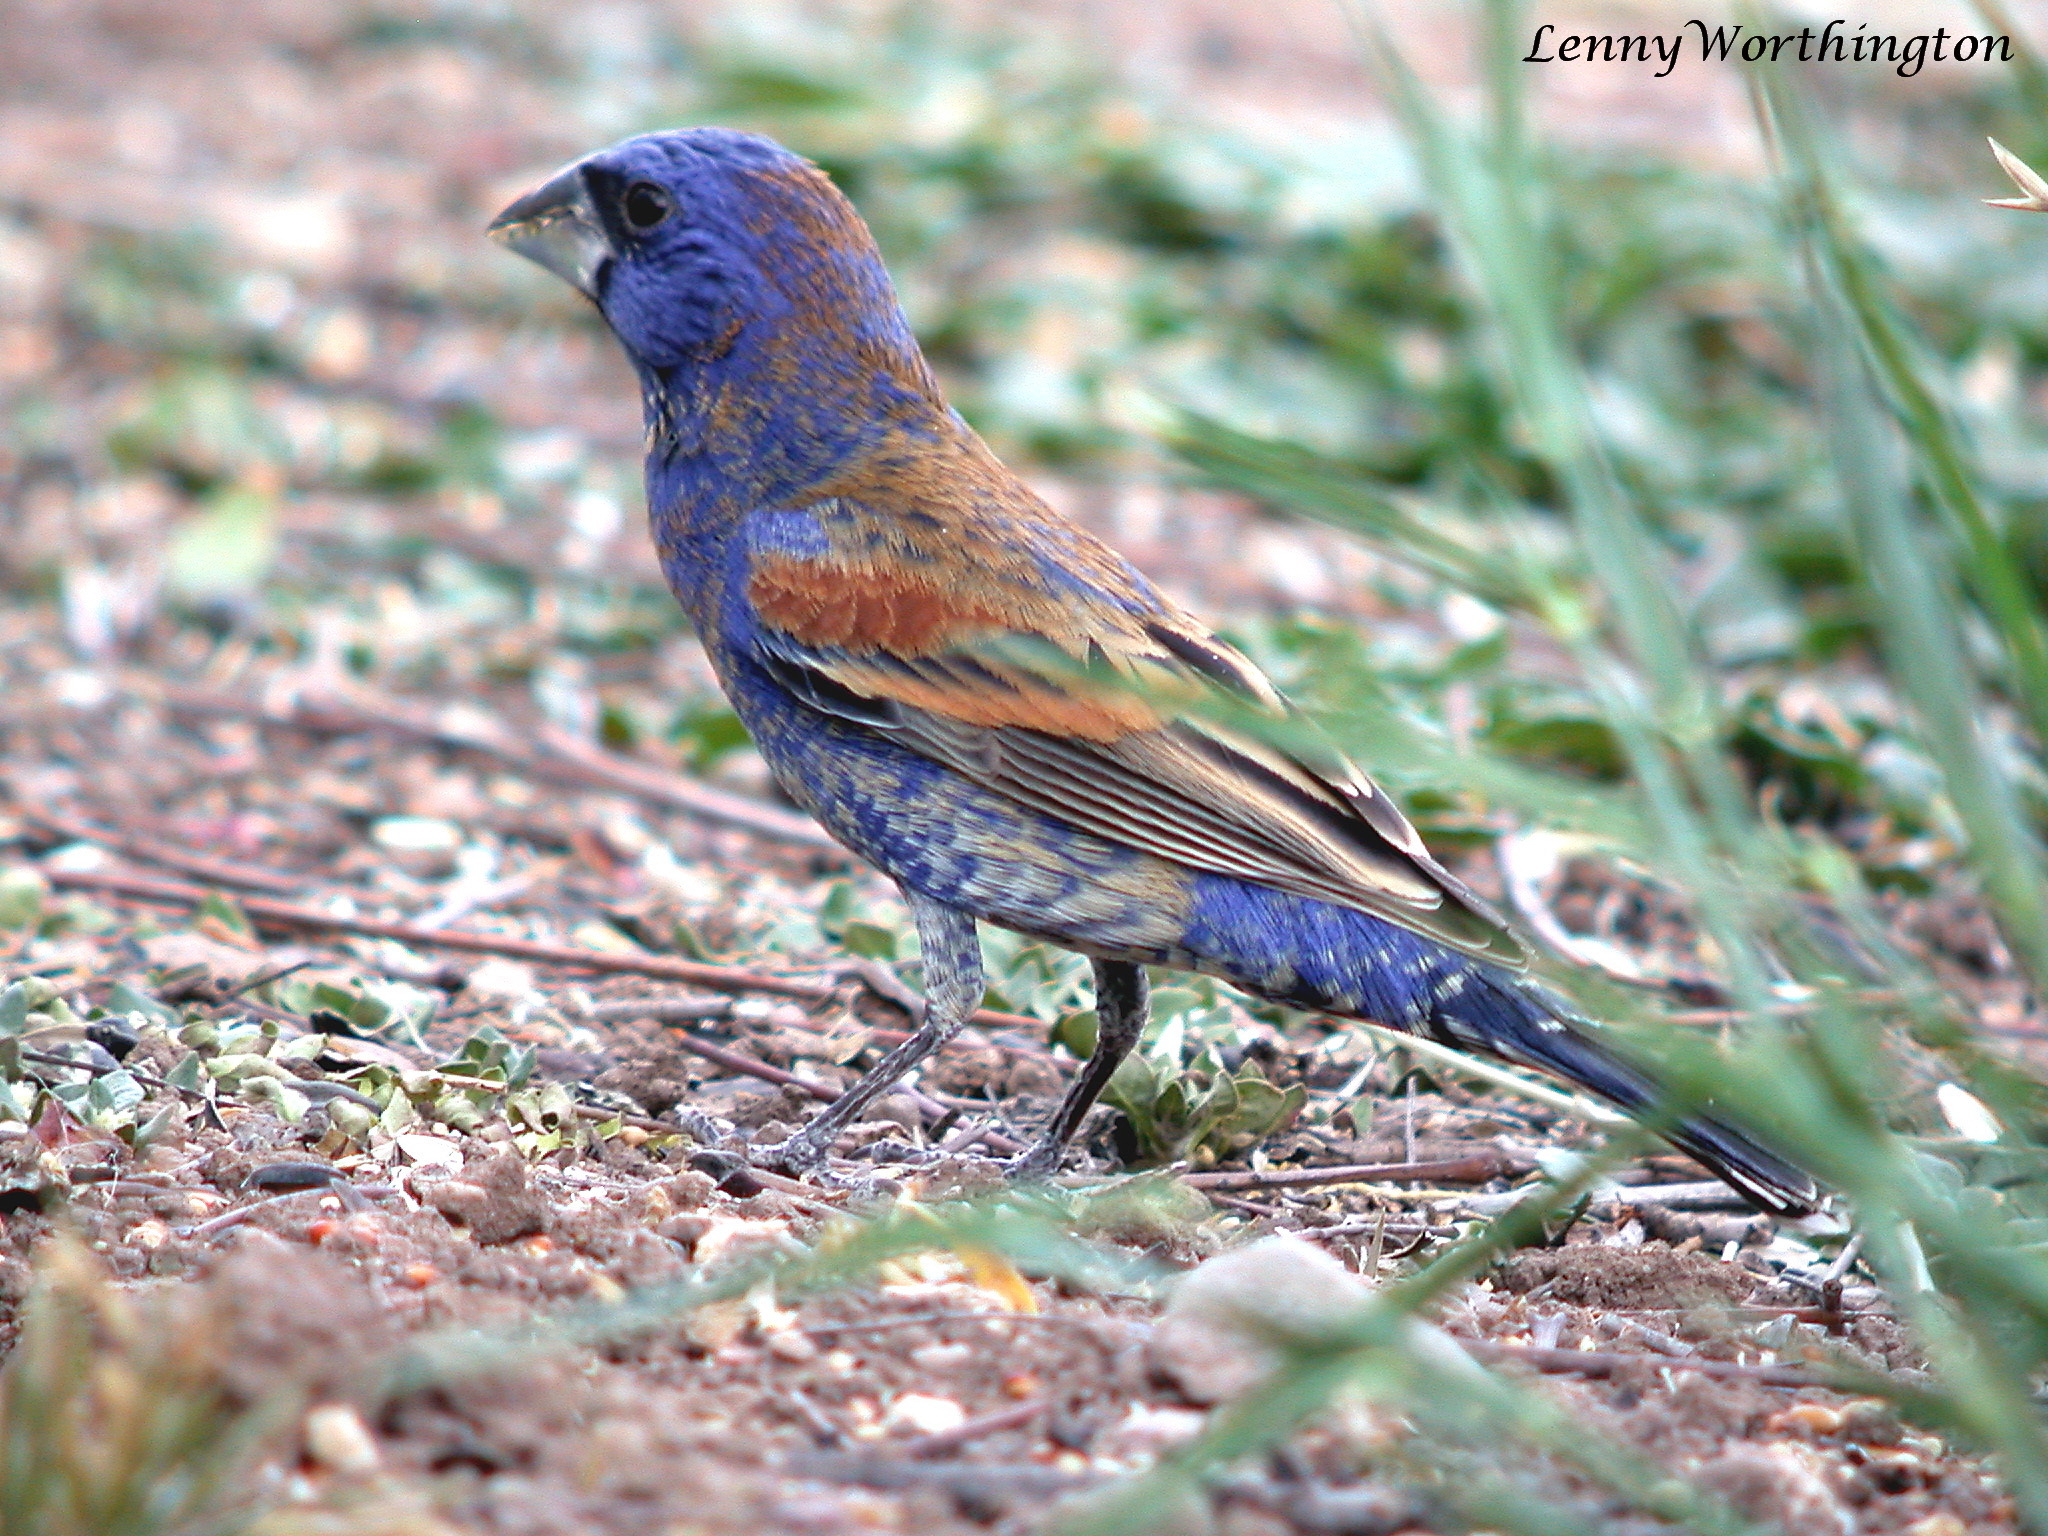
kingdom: Animalia
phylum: Chordata
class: Aves
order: Passeriformes
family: Cardinalidae
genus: Passerina
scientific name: Passerina caerulea
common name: Blue grosbeak
